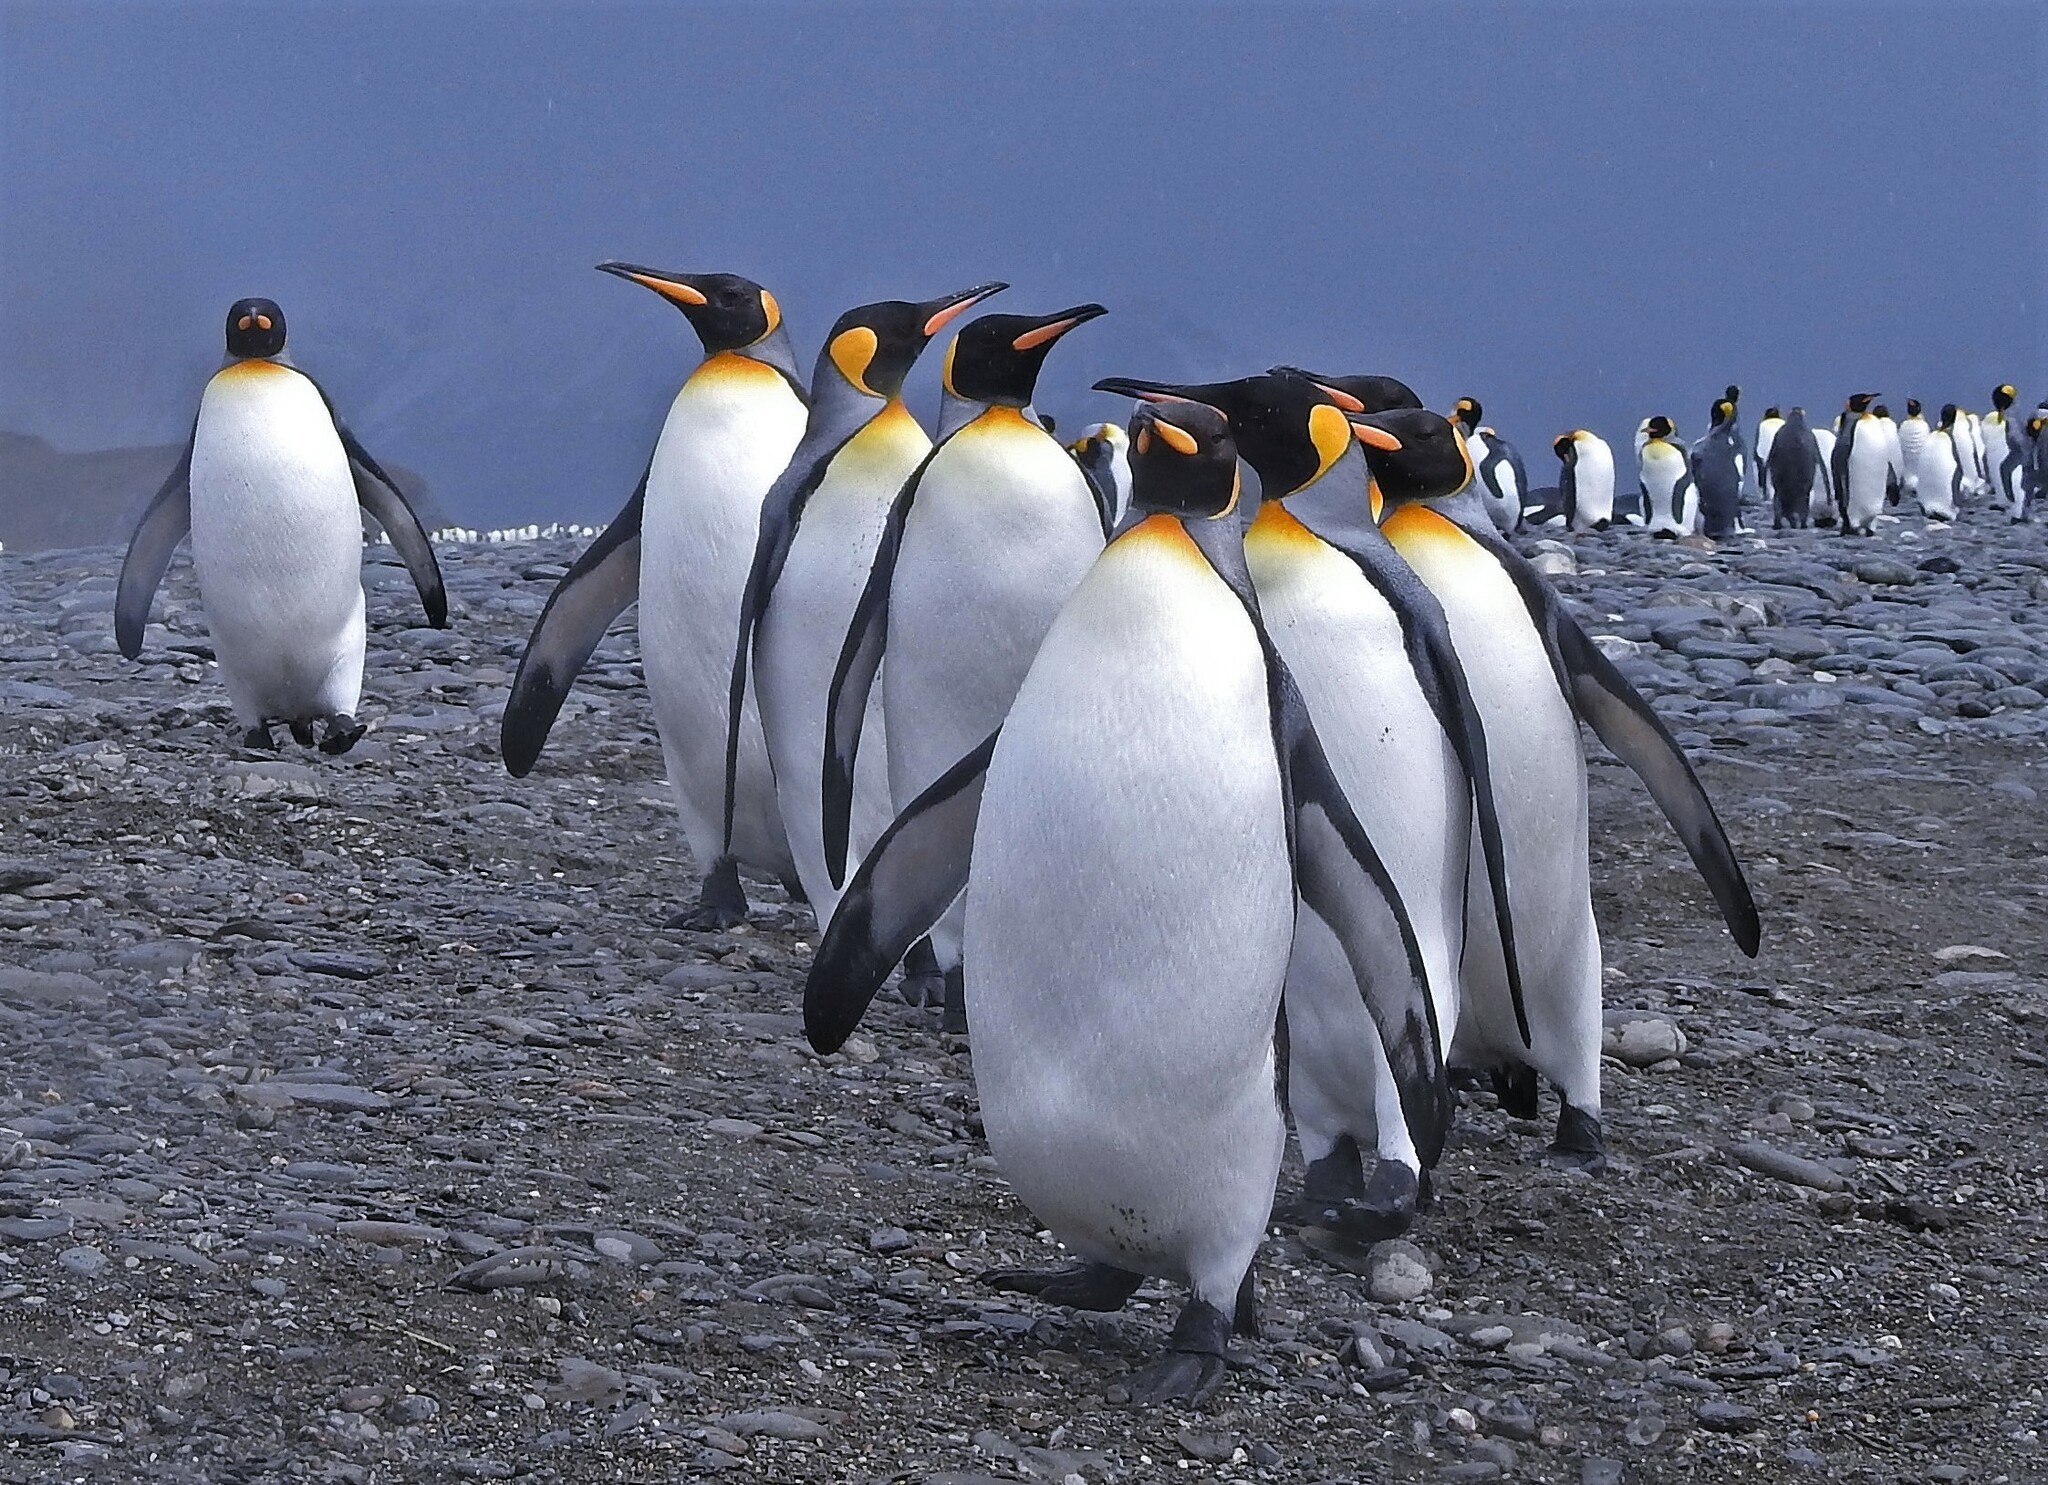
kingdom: Animalia
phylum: Chordata
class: Aves
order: Sphenisciformes
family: Spheniscidae
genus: Aptenodytes
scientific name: Aptenodytes patagonicus
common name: King penguin
